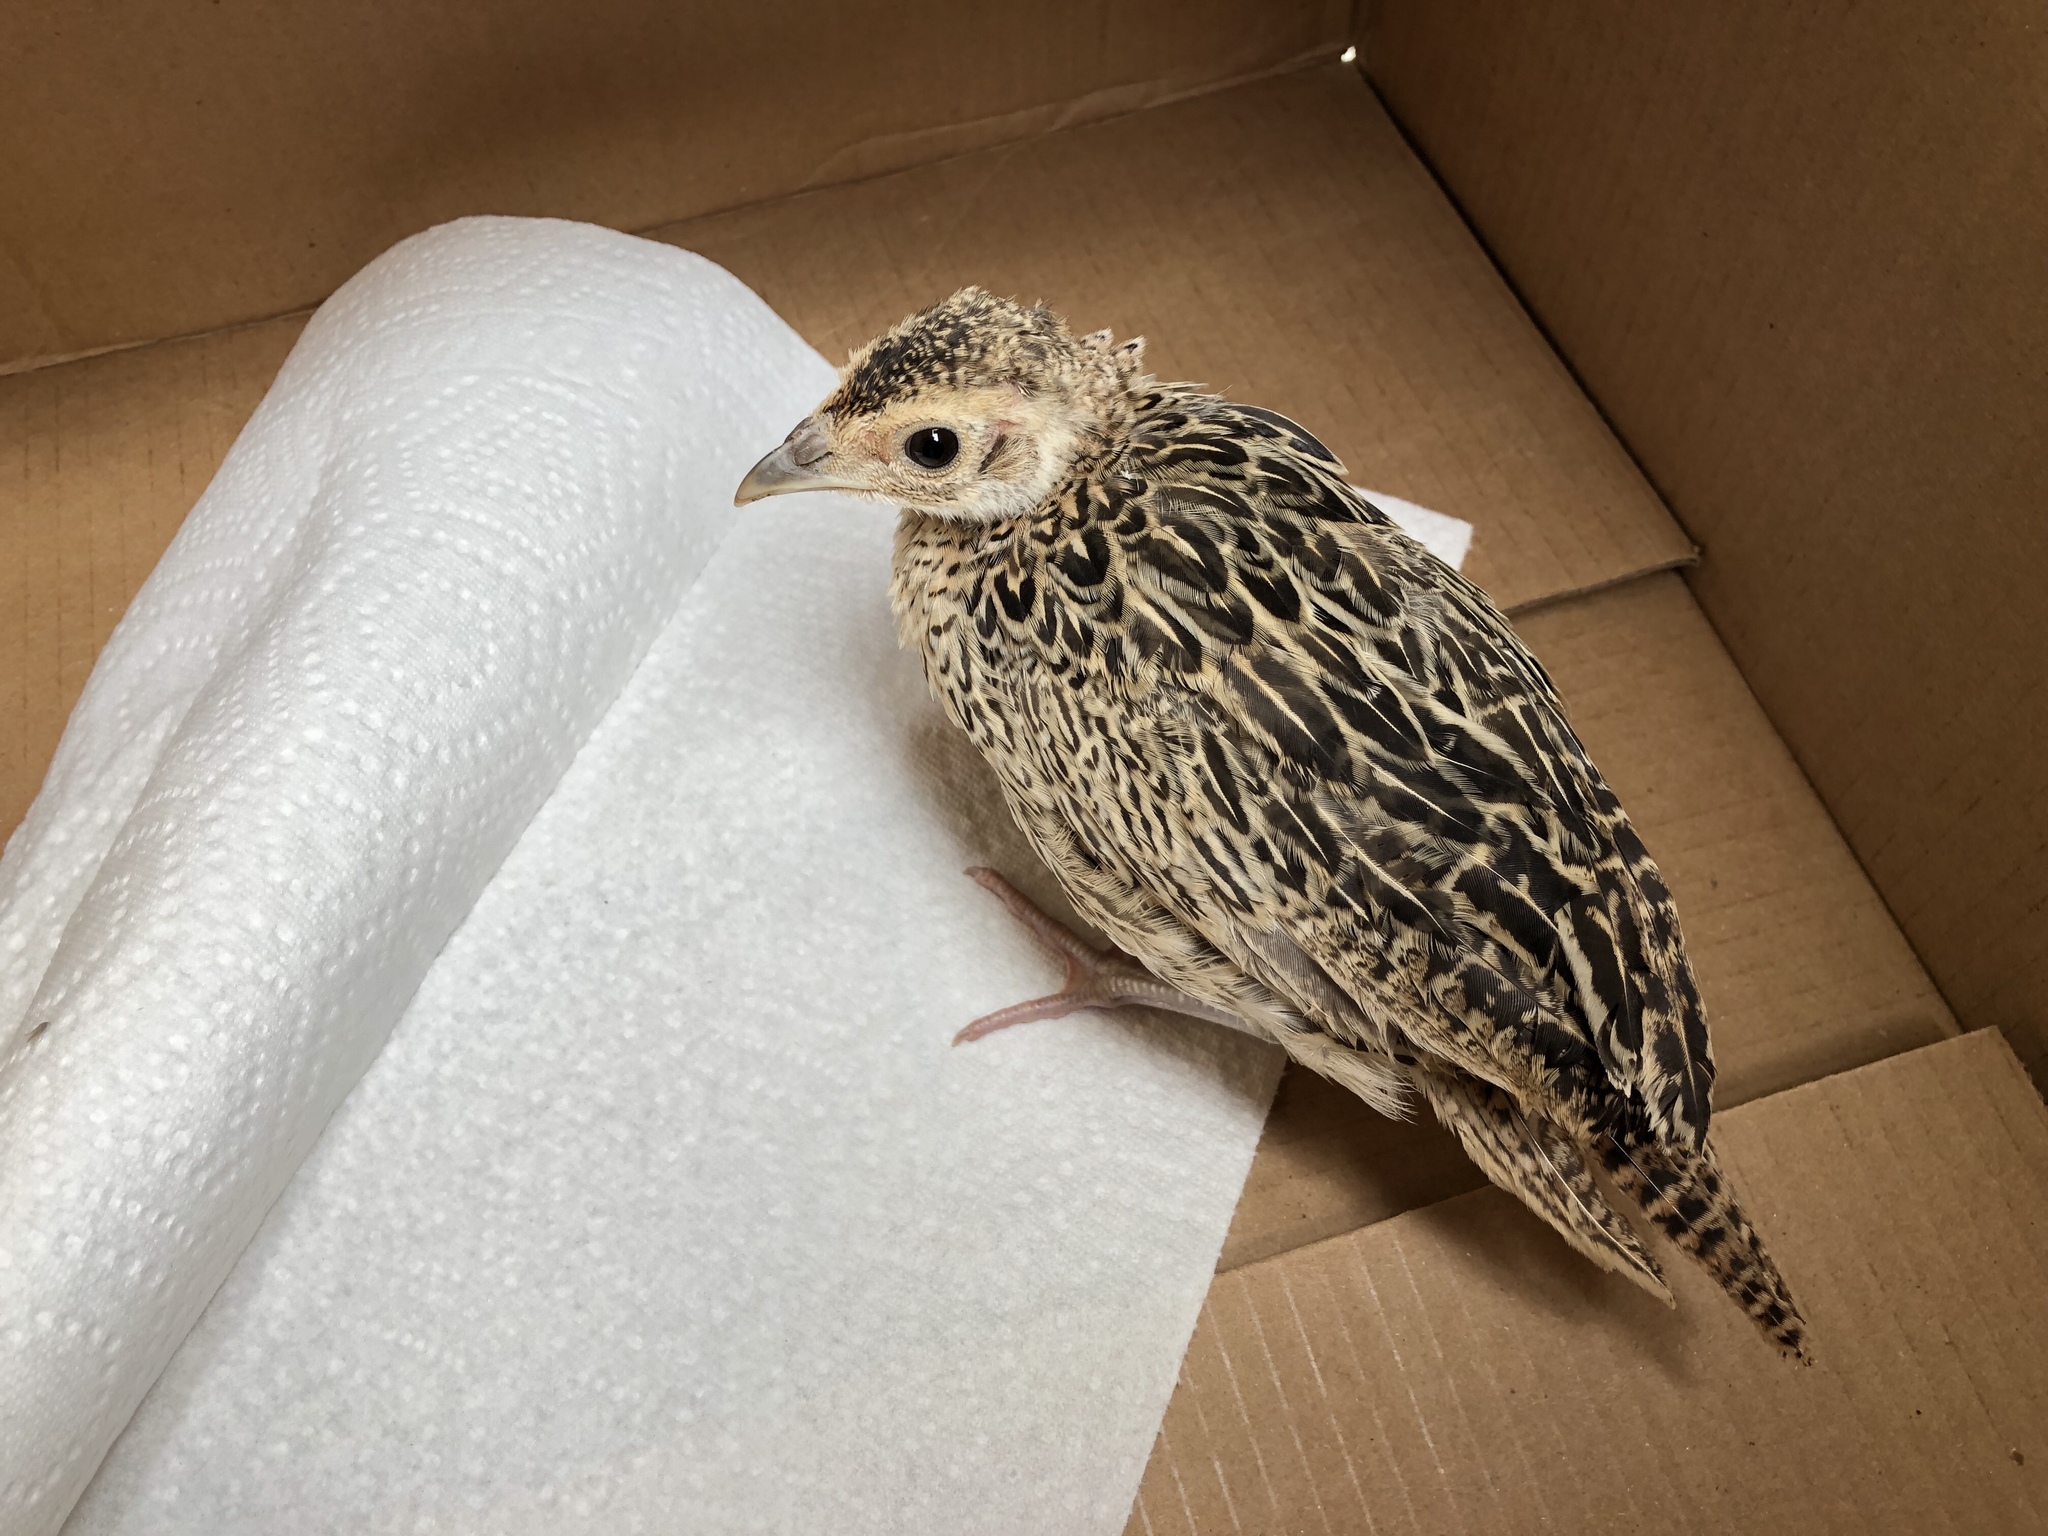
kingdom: Animalia
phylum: Chordata
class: Aves
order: Galliformes
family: Phasianidae
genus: Phasianus
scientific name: Phasianus colchicus
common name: Common pheasant
